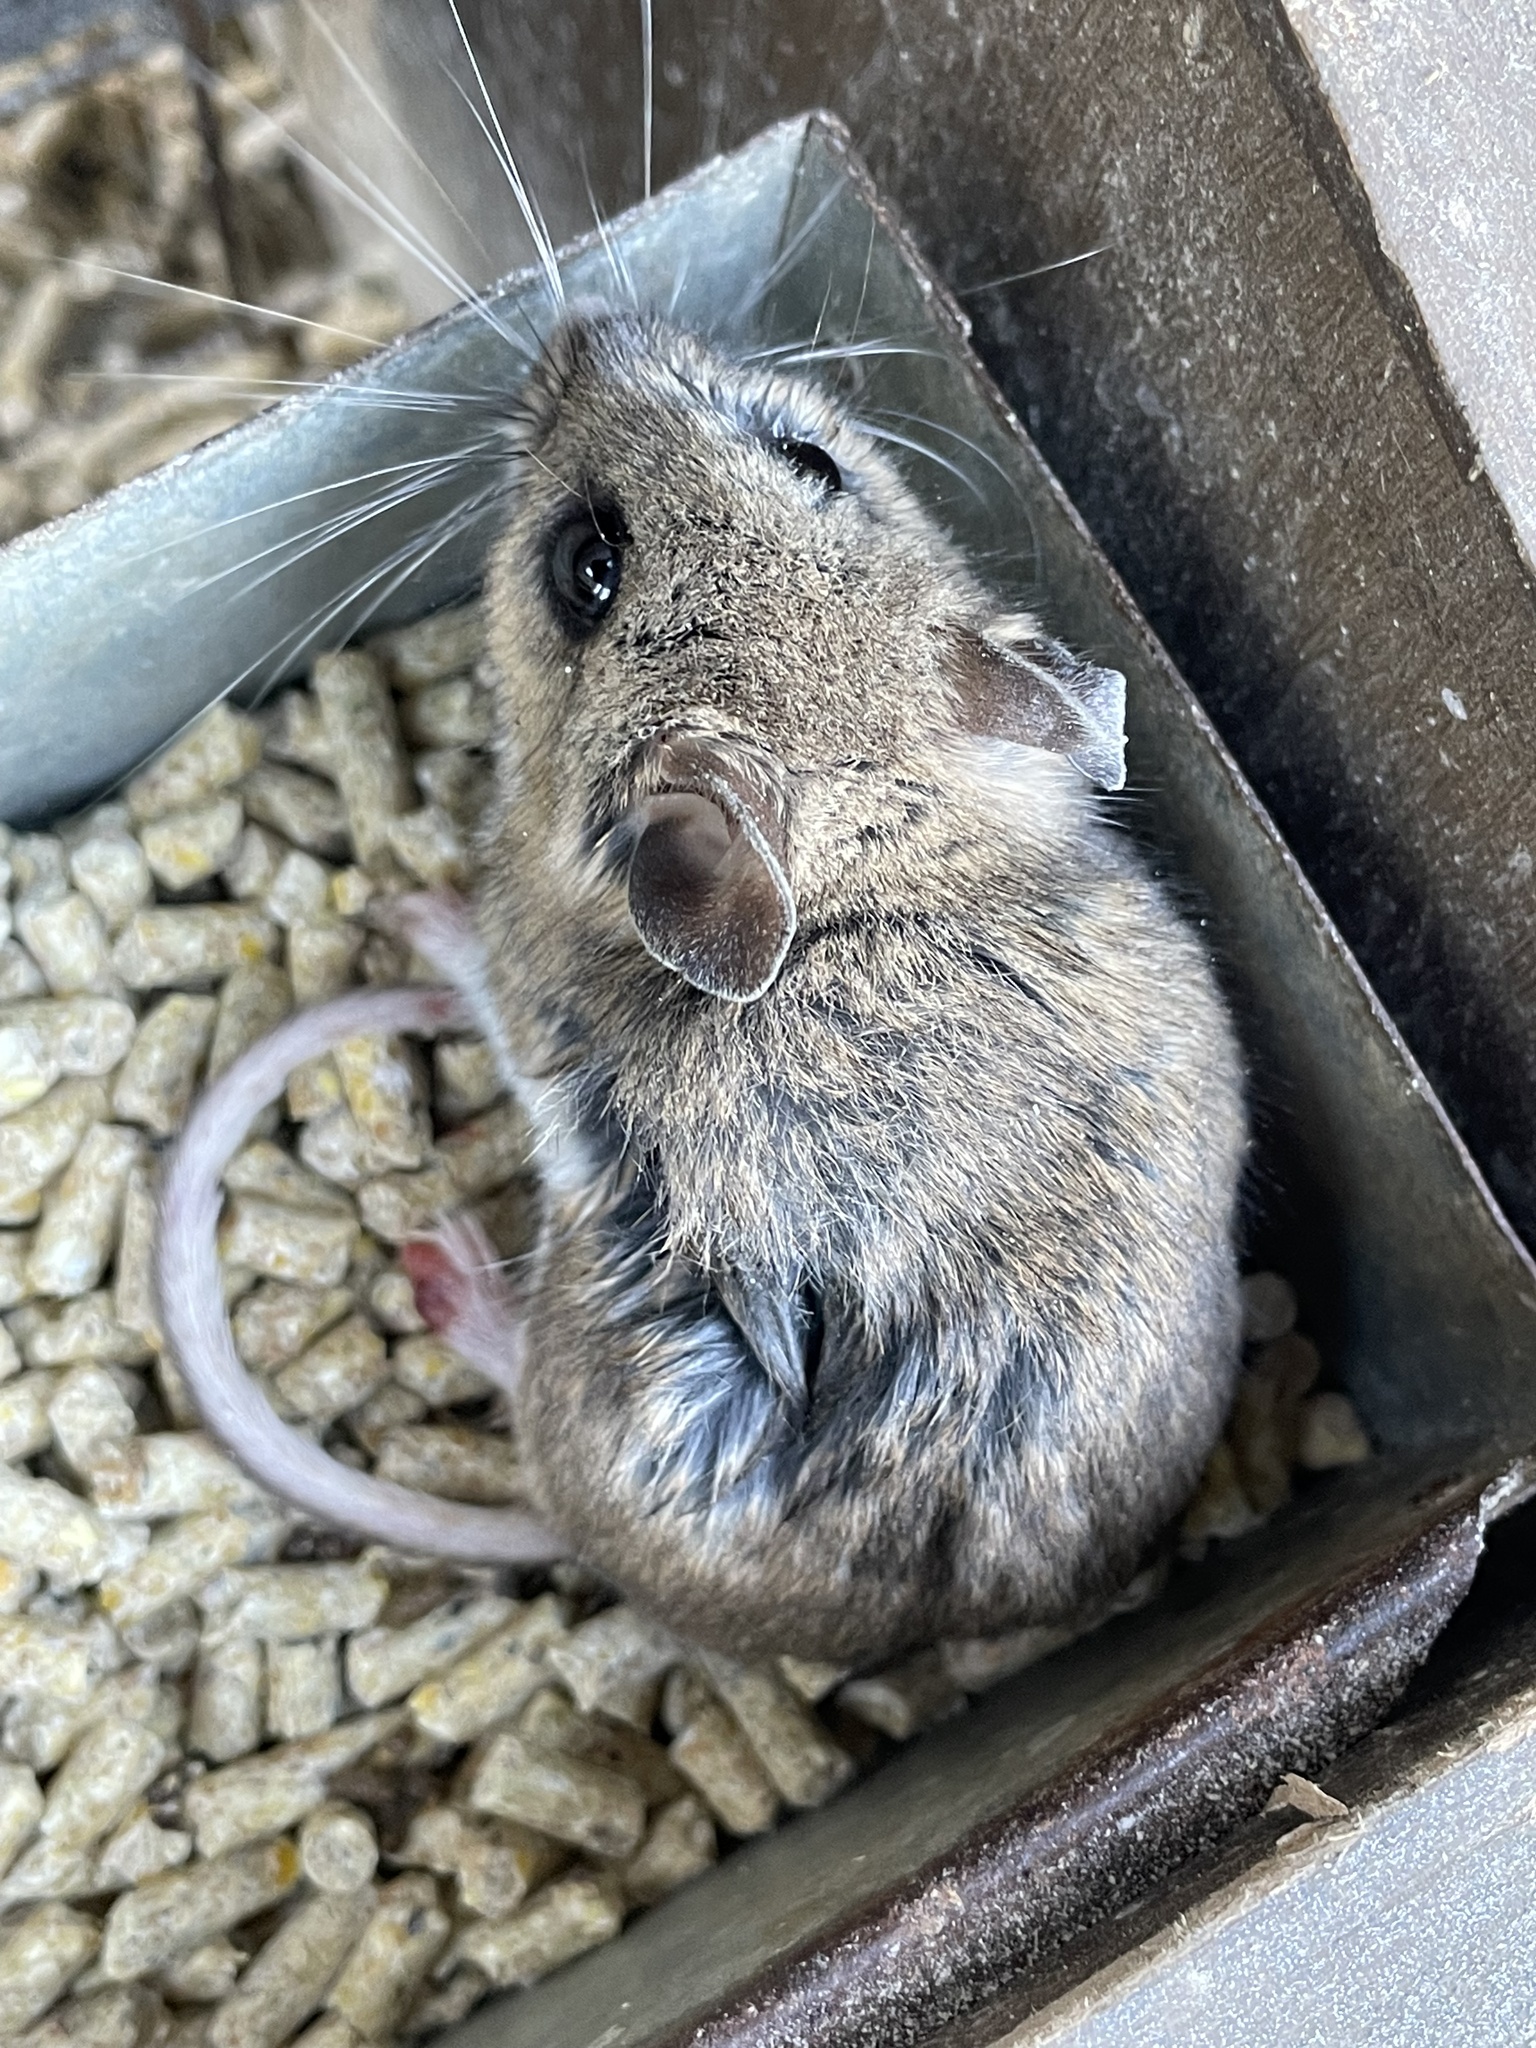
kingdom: Animalia
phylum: Chordata
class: Mammalia
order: Rodentia
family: Cricetidae
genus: Peromyscus
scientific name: Peromyscus maniculatus
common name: Deer mouse
